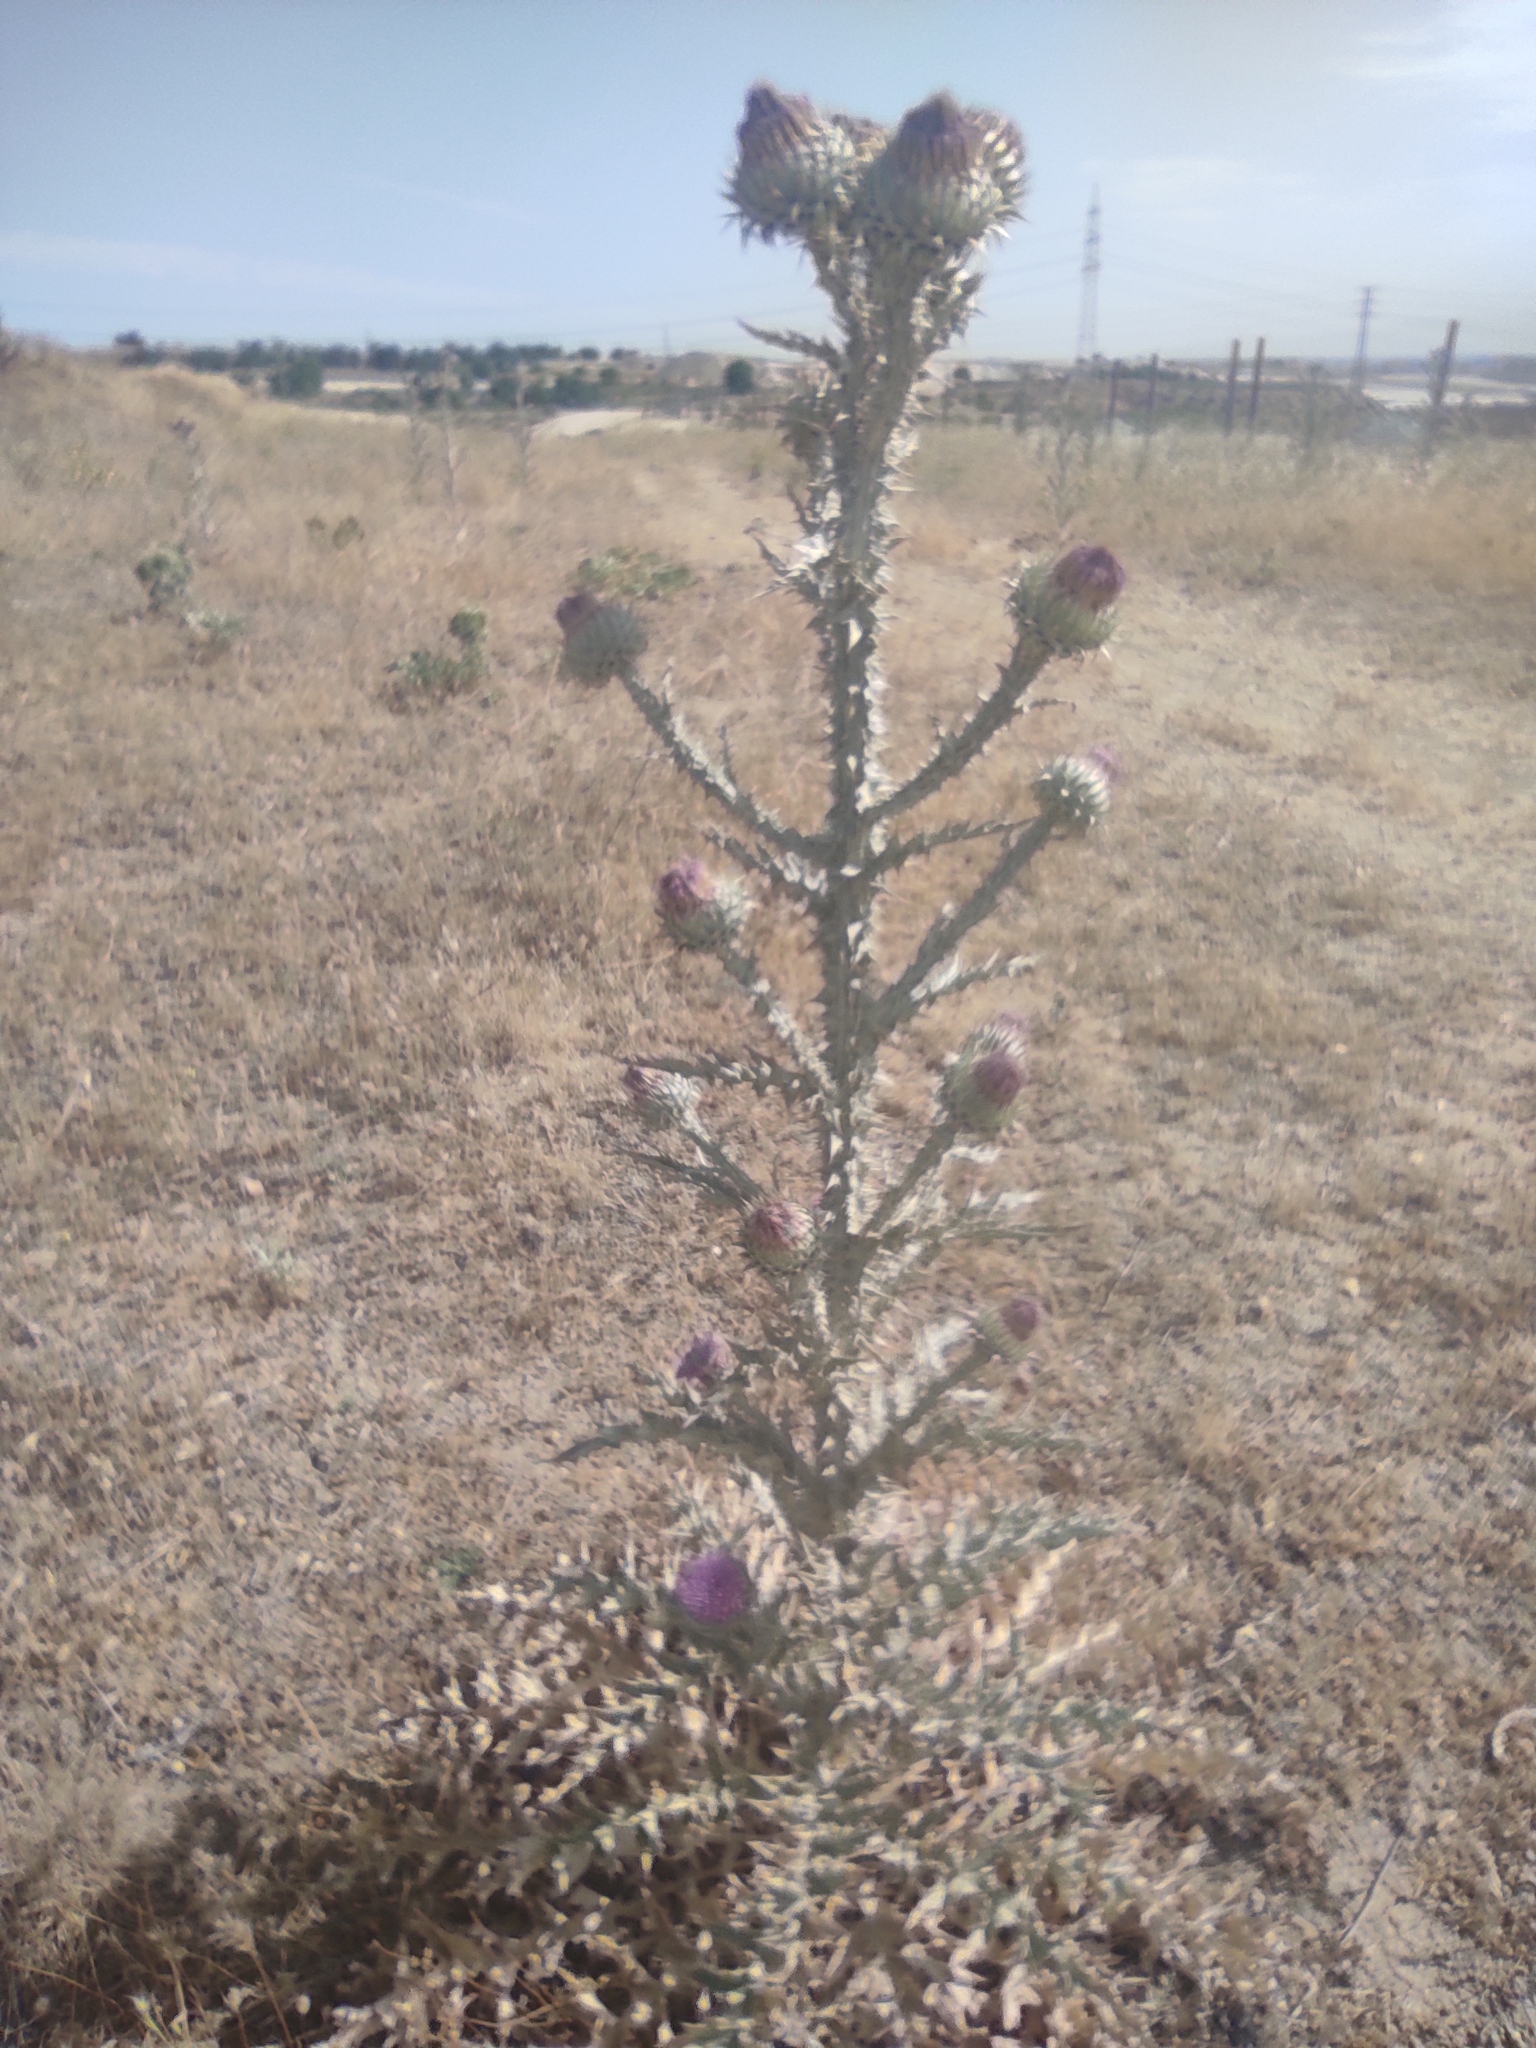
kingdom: Plantae
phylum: Tracheophyta
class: Magnoliopsida
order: Asterales
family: Asteraceae
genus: Onopordum
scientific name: Onopordum illyricum
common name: Illyrian thistle
